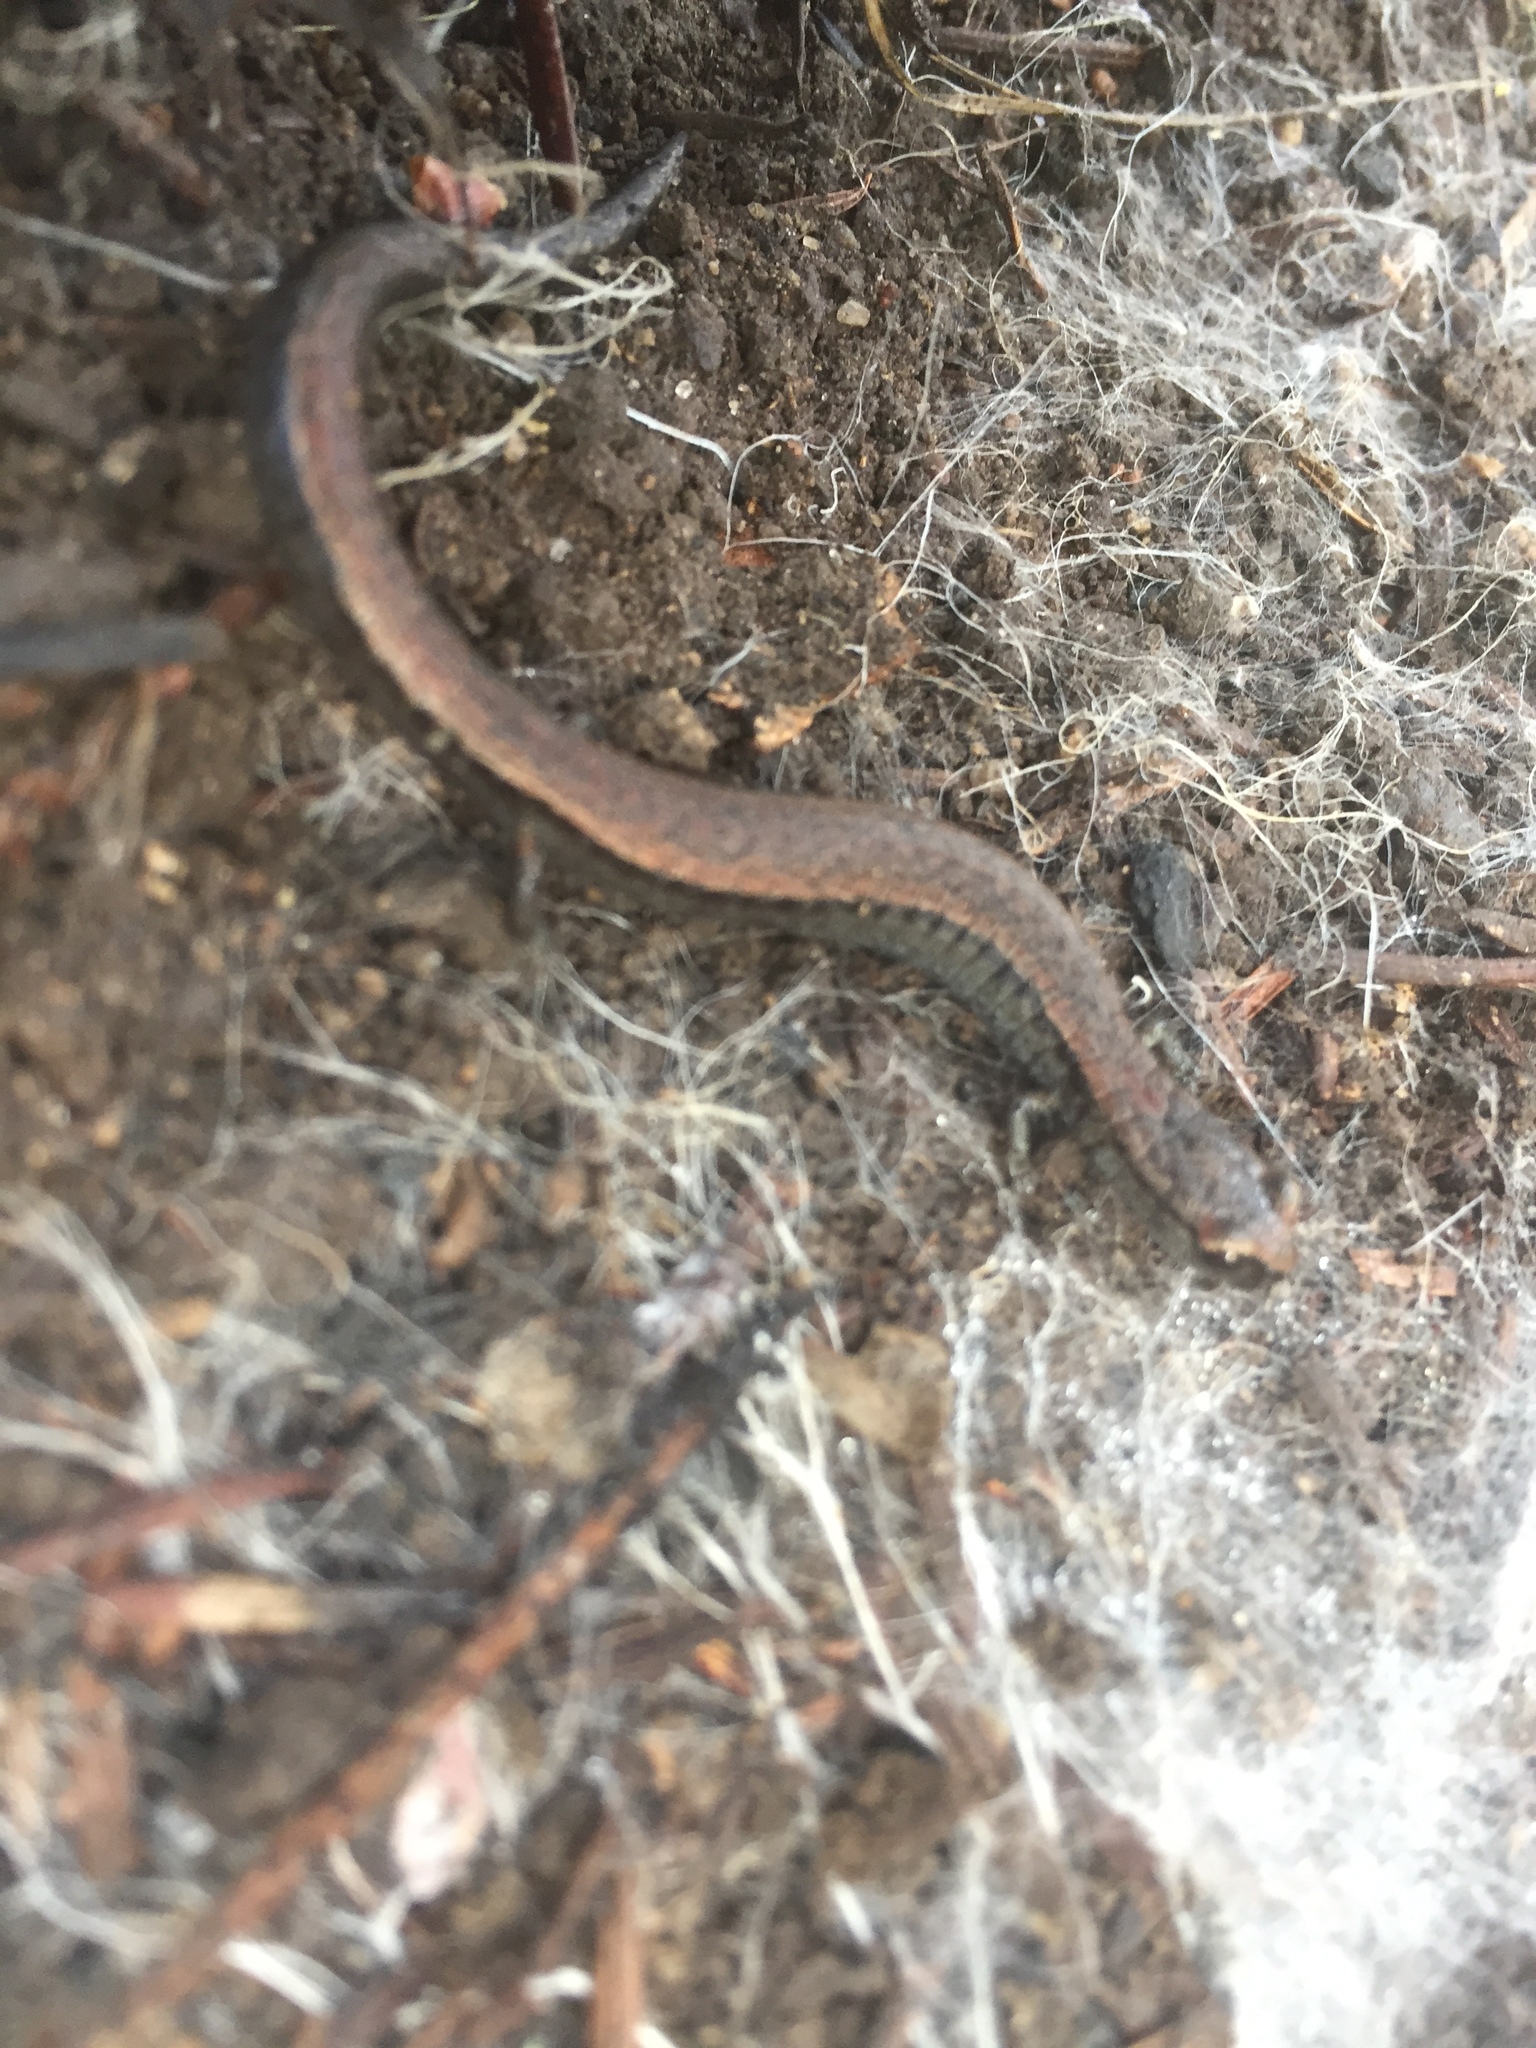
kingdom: Animalia
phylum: Chordata
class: Amphibia
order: Caudata
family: Plethodontidae
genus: Batrachoseps
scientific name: Batrachoseps attenuatus
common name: California slender salamander
